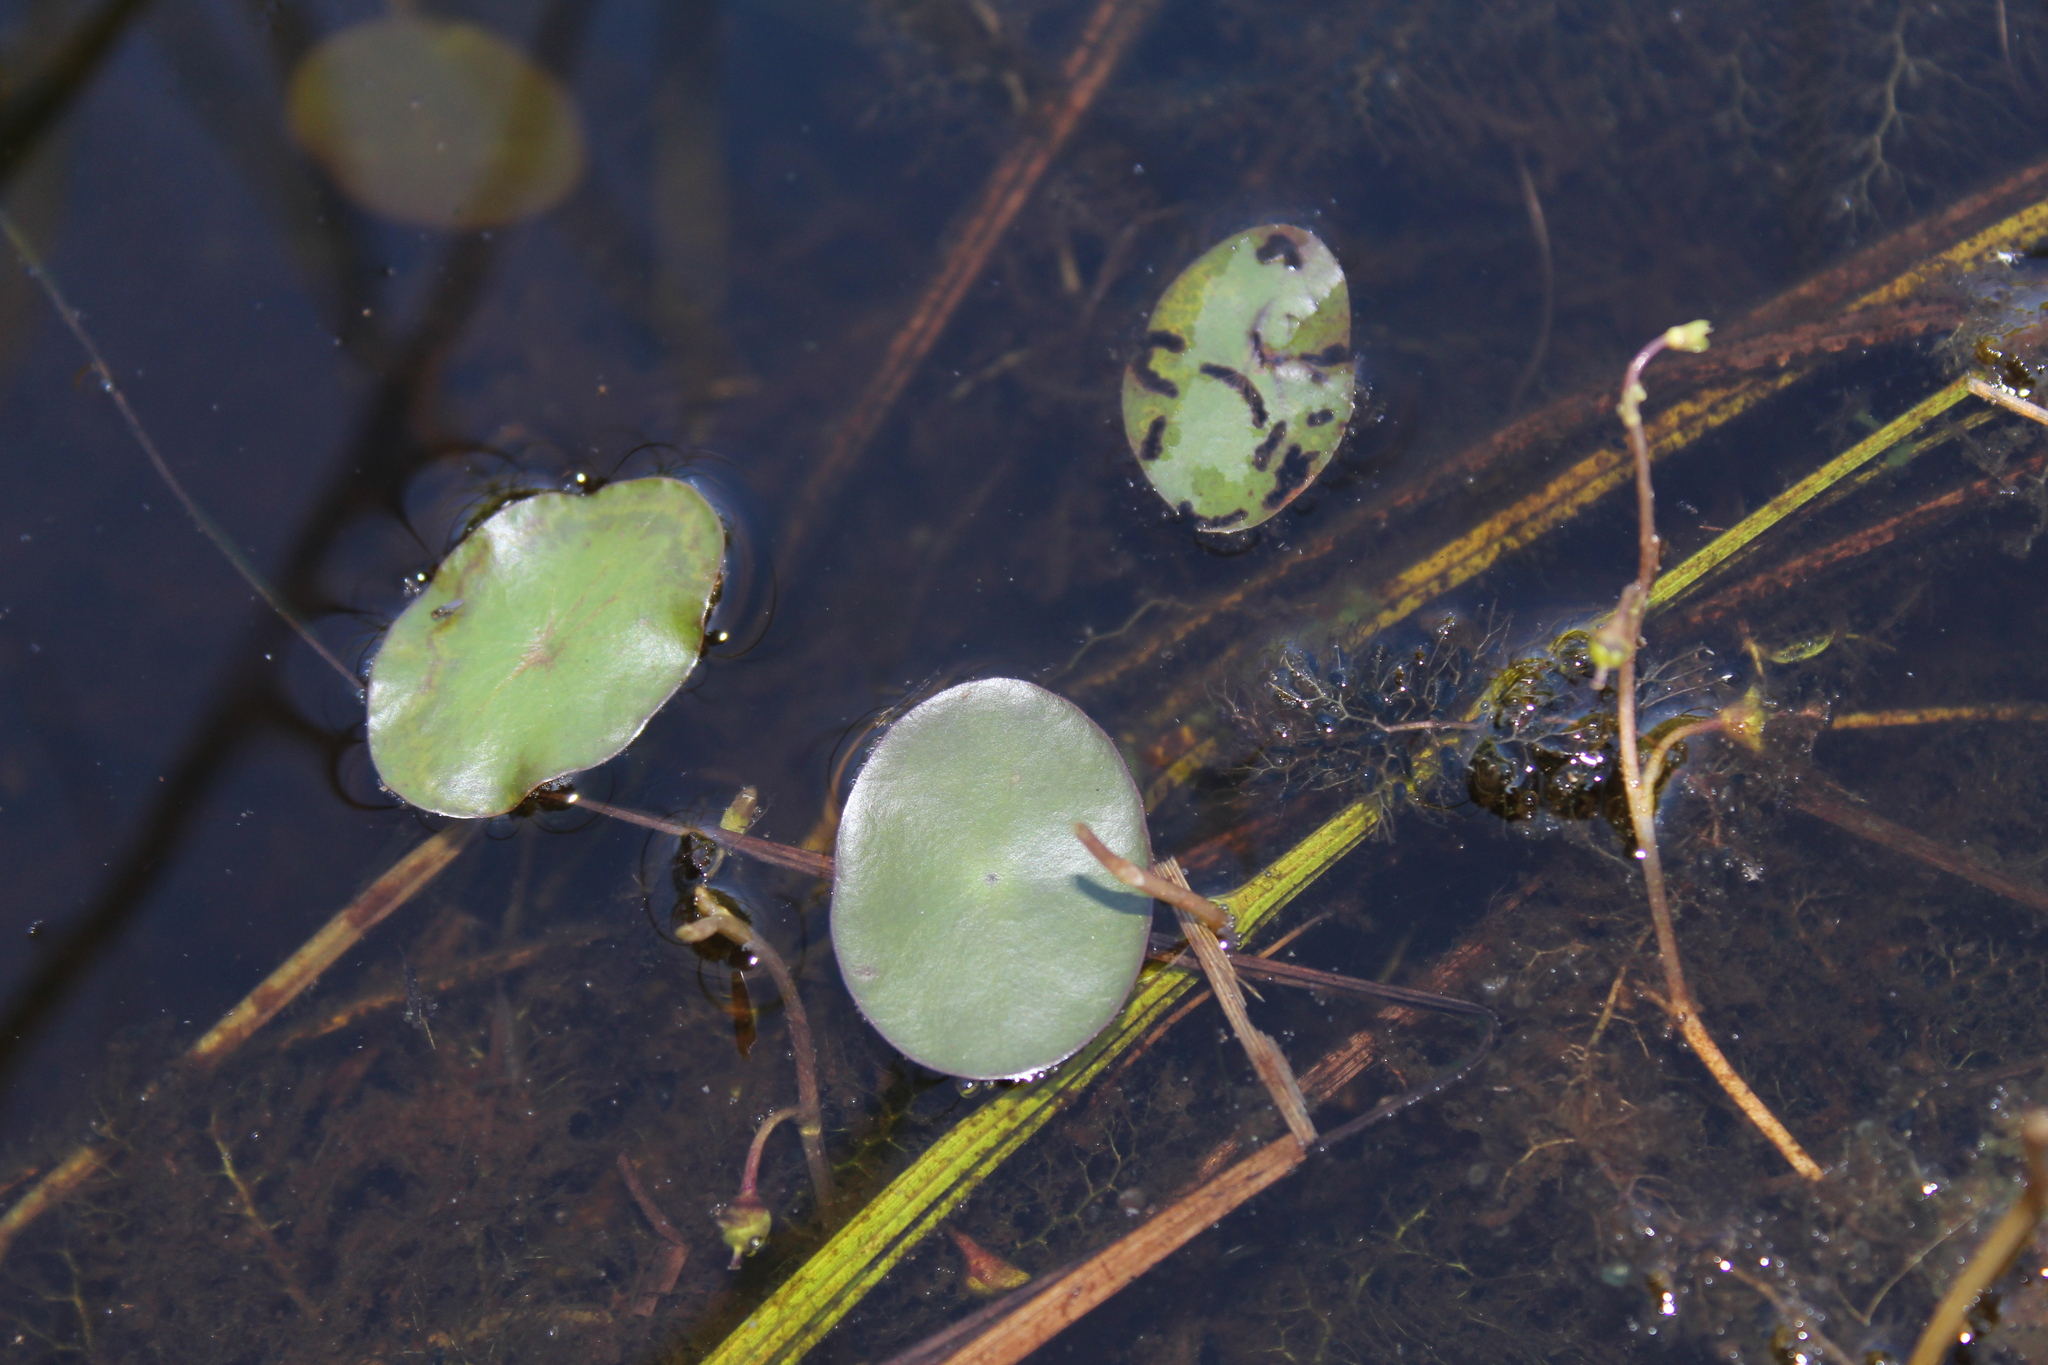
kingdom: Plantae
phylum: Tracheophyta
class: Magnoliopsida
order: Nymphaeales
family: Cabombaceae
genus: Brasenia
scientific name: Brasenia schreberi
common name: Water-shield
